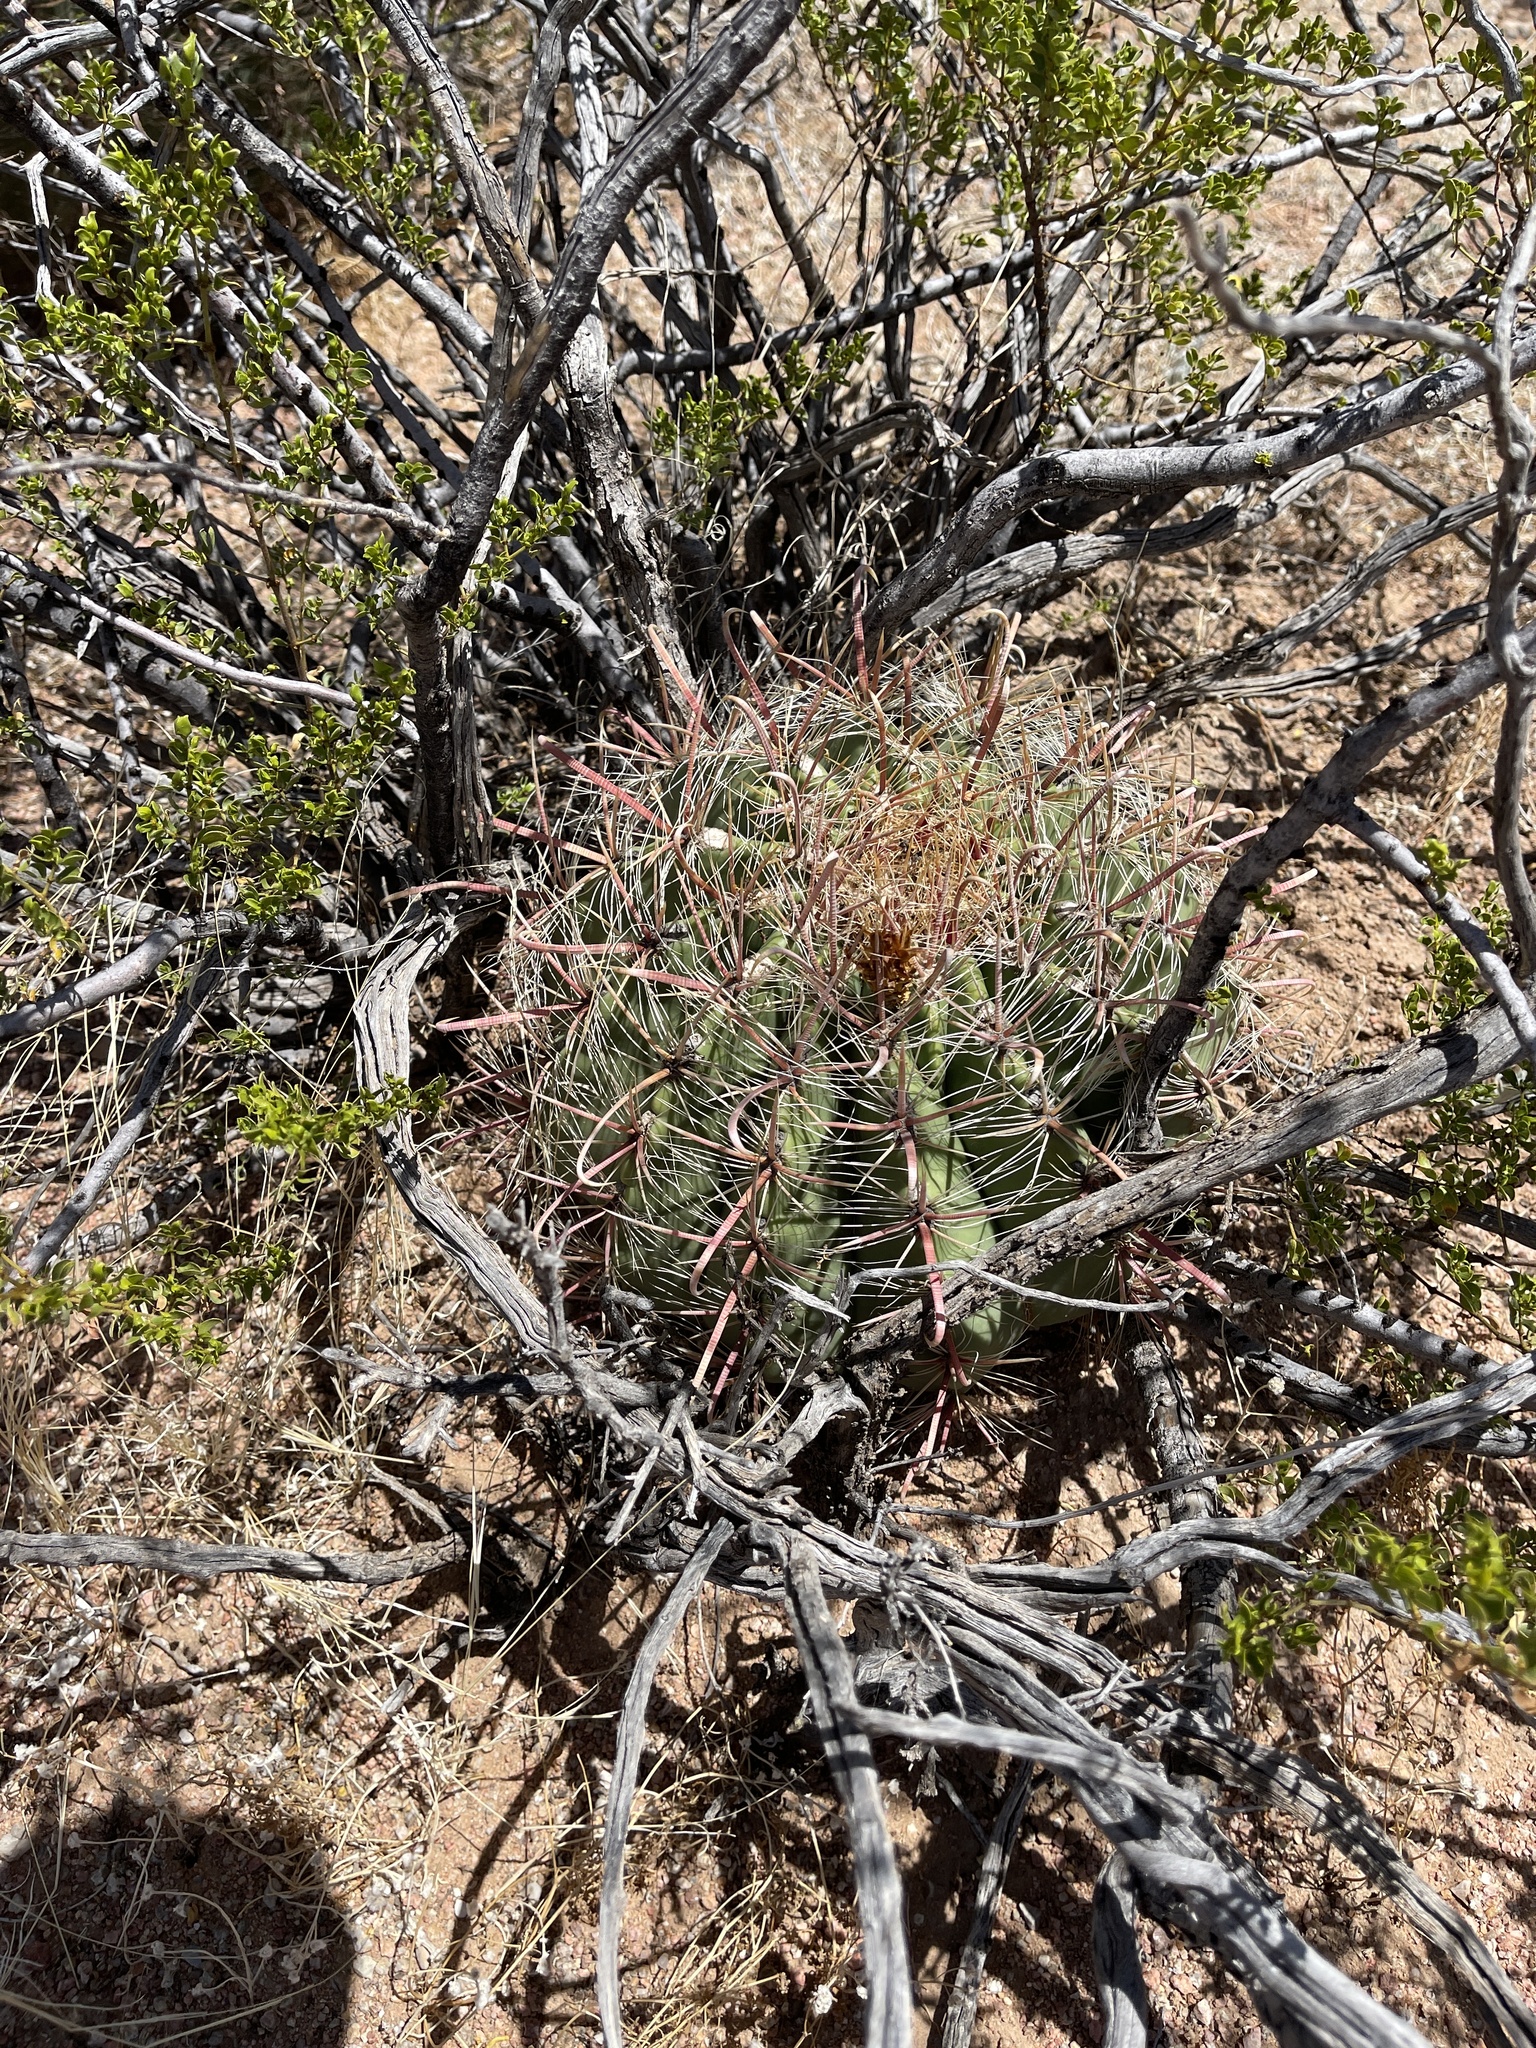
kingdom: Plantae
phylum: Tracheophyta
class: Magnoliopsida
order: Caryophyllales
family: Cactaceae
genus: Ferocactus
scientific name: Ferocactus wislizeni
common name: Candy barrel cactus
